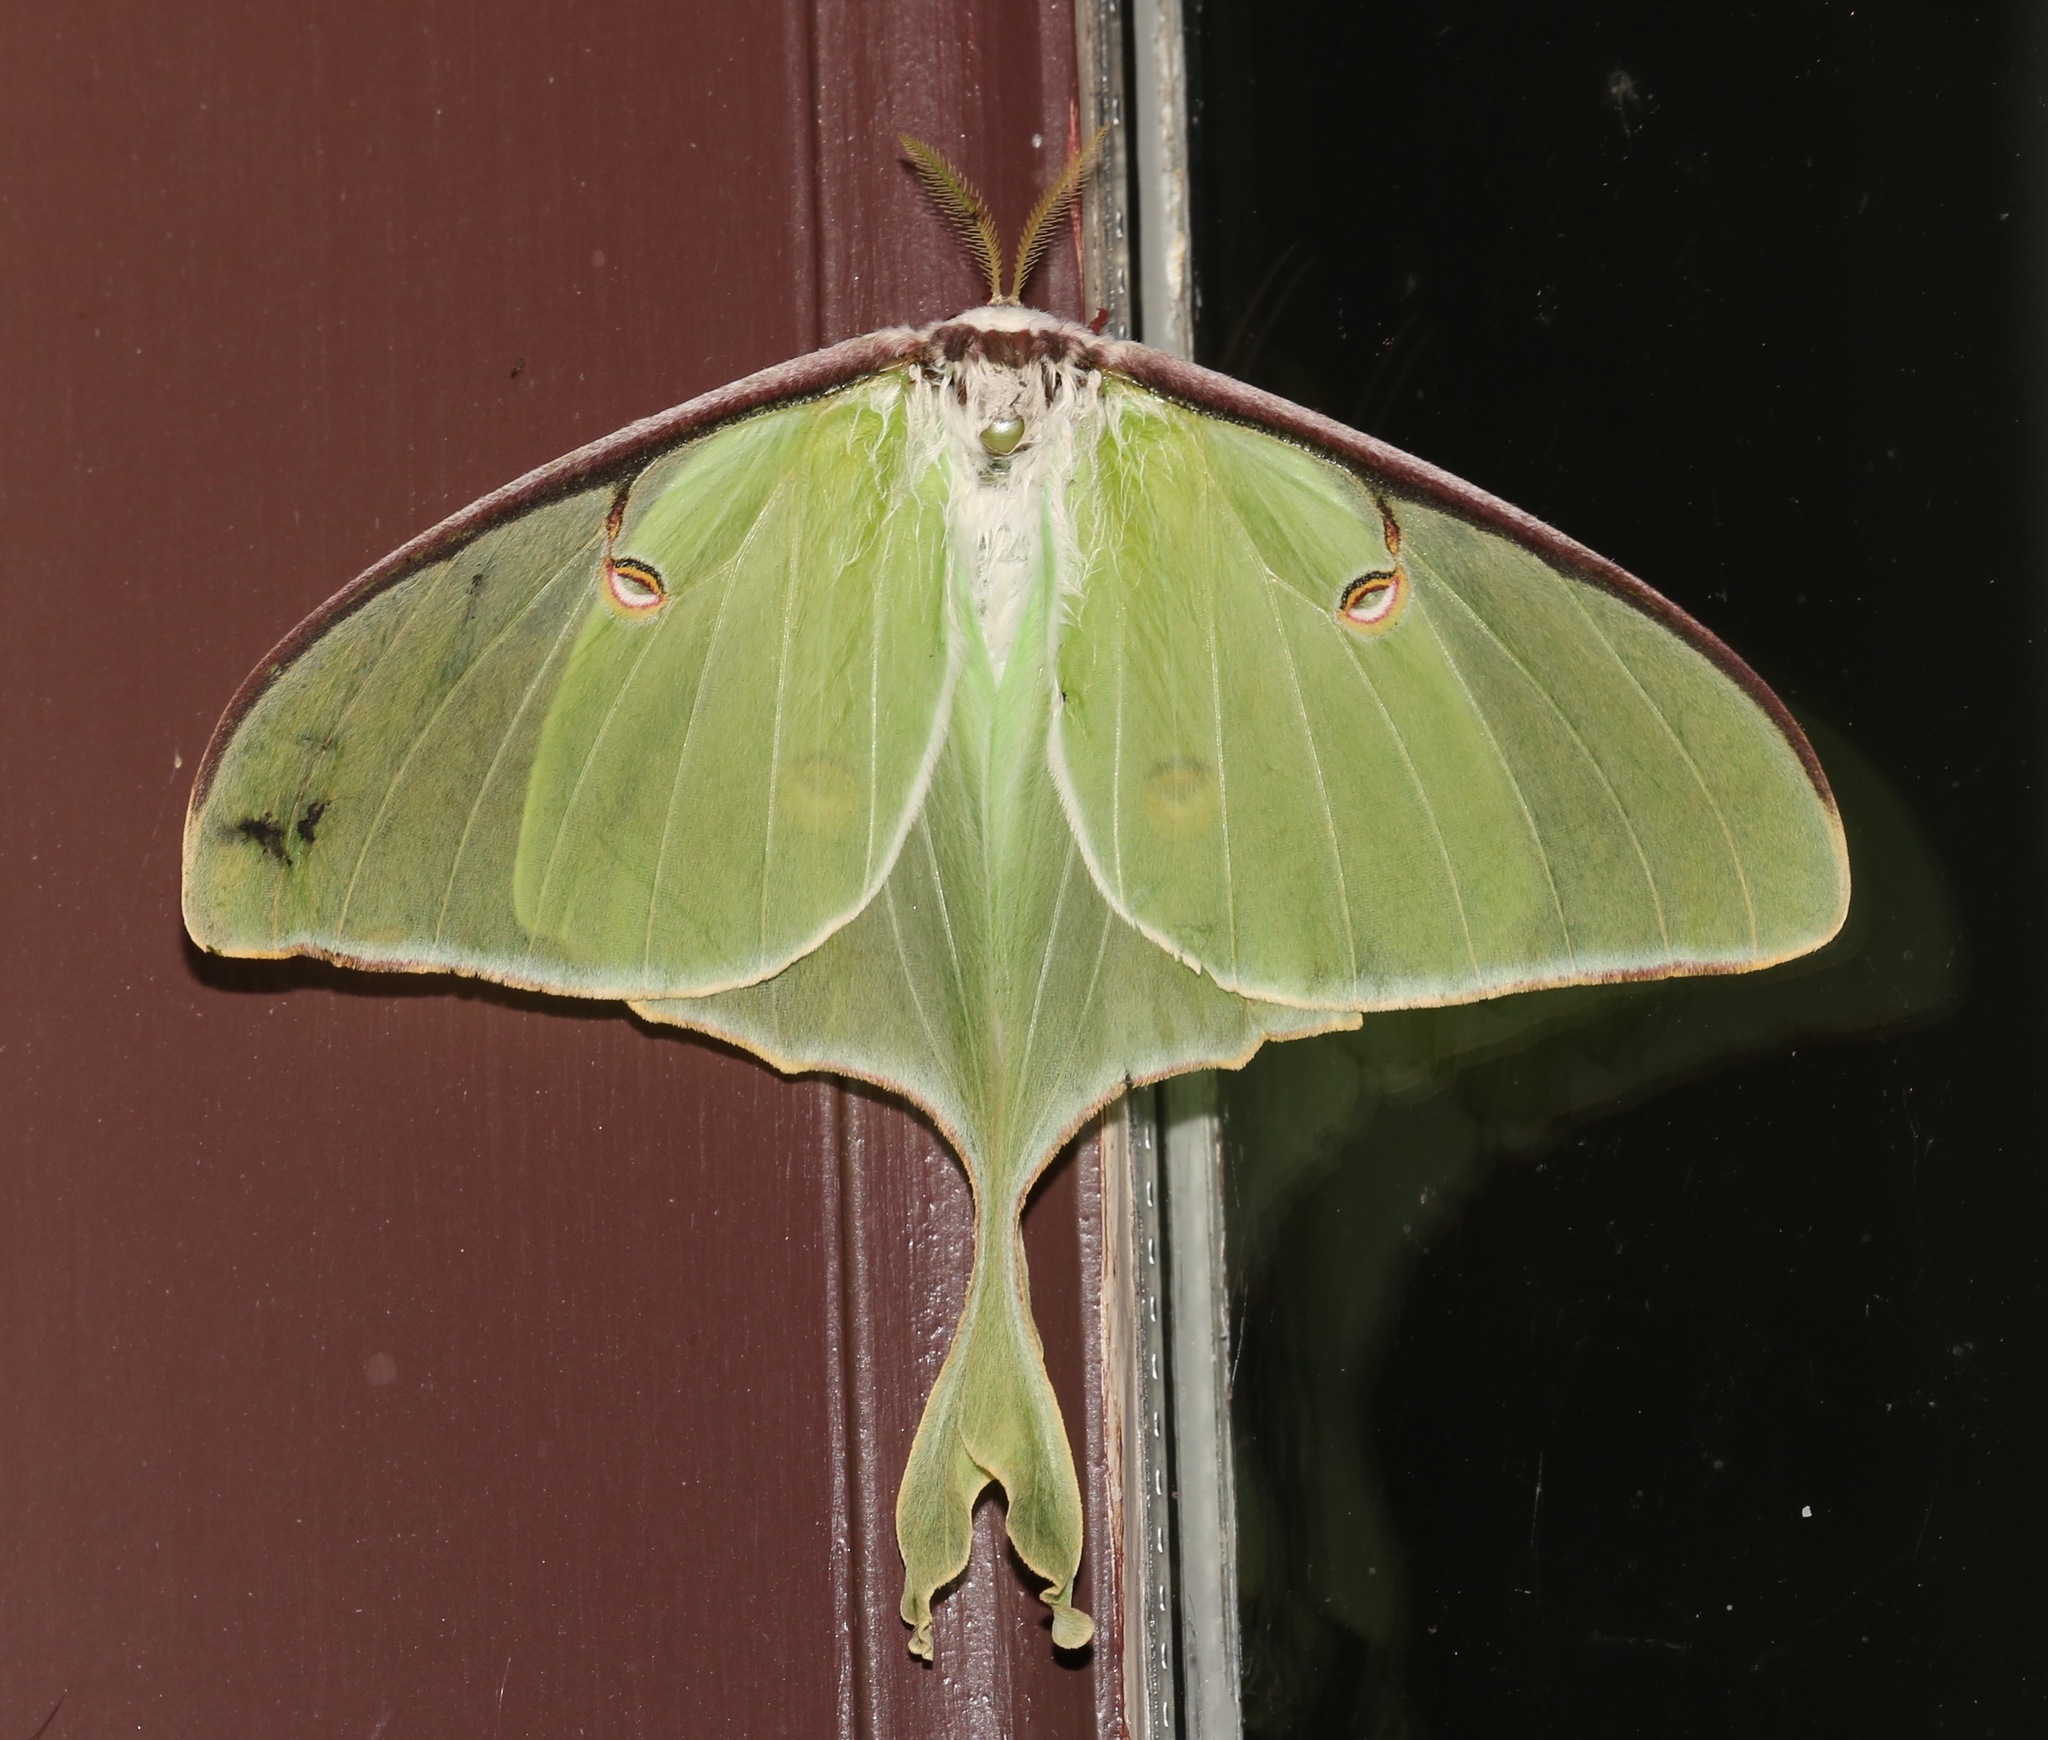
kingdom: Animalia
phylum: Arthropoda
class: Insecta
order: Lepidoptera
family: Saturniidae
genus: Actias
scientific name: Actias luna
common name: Luna moth
